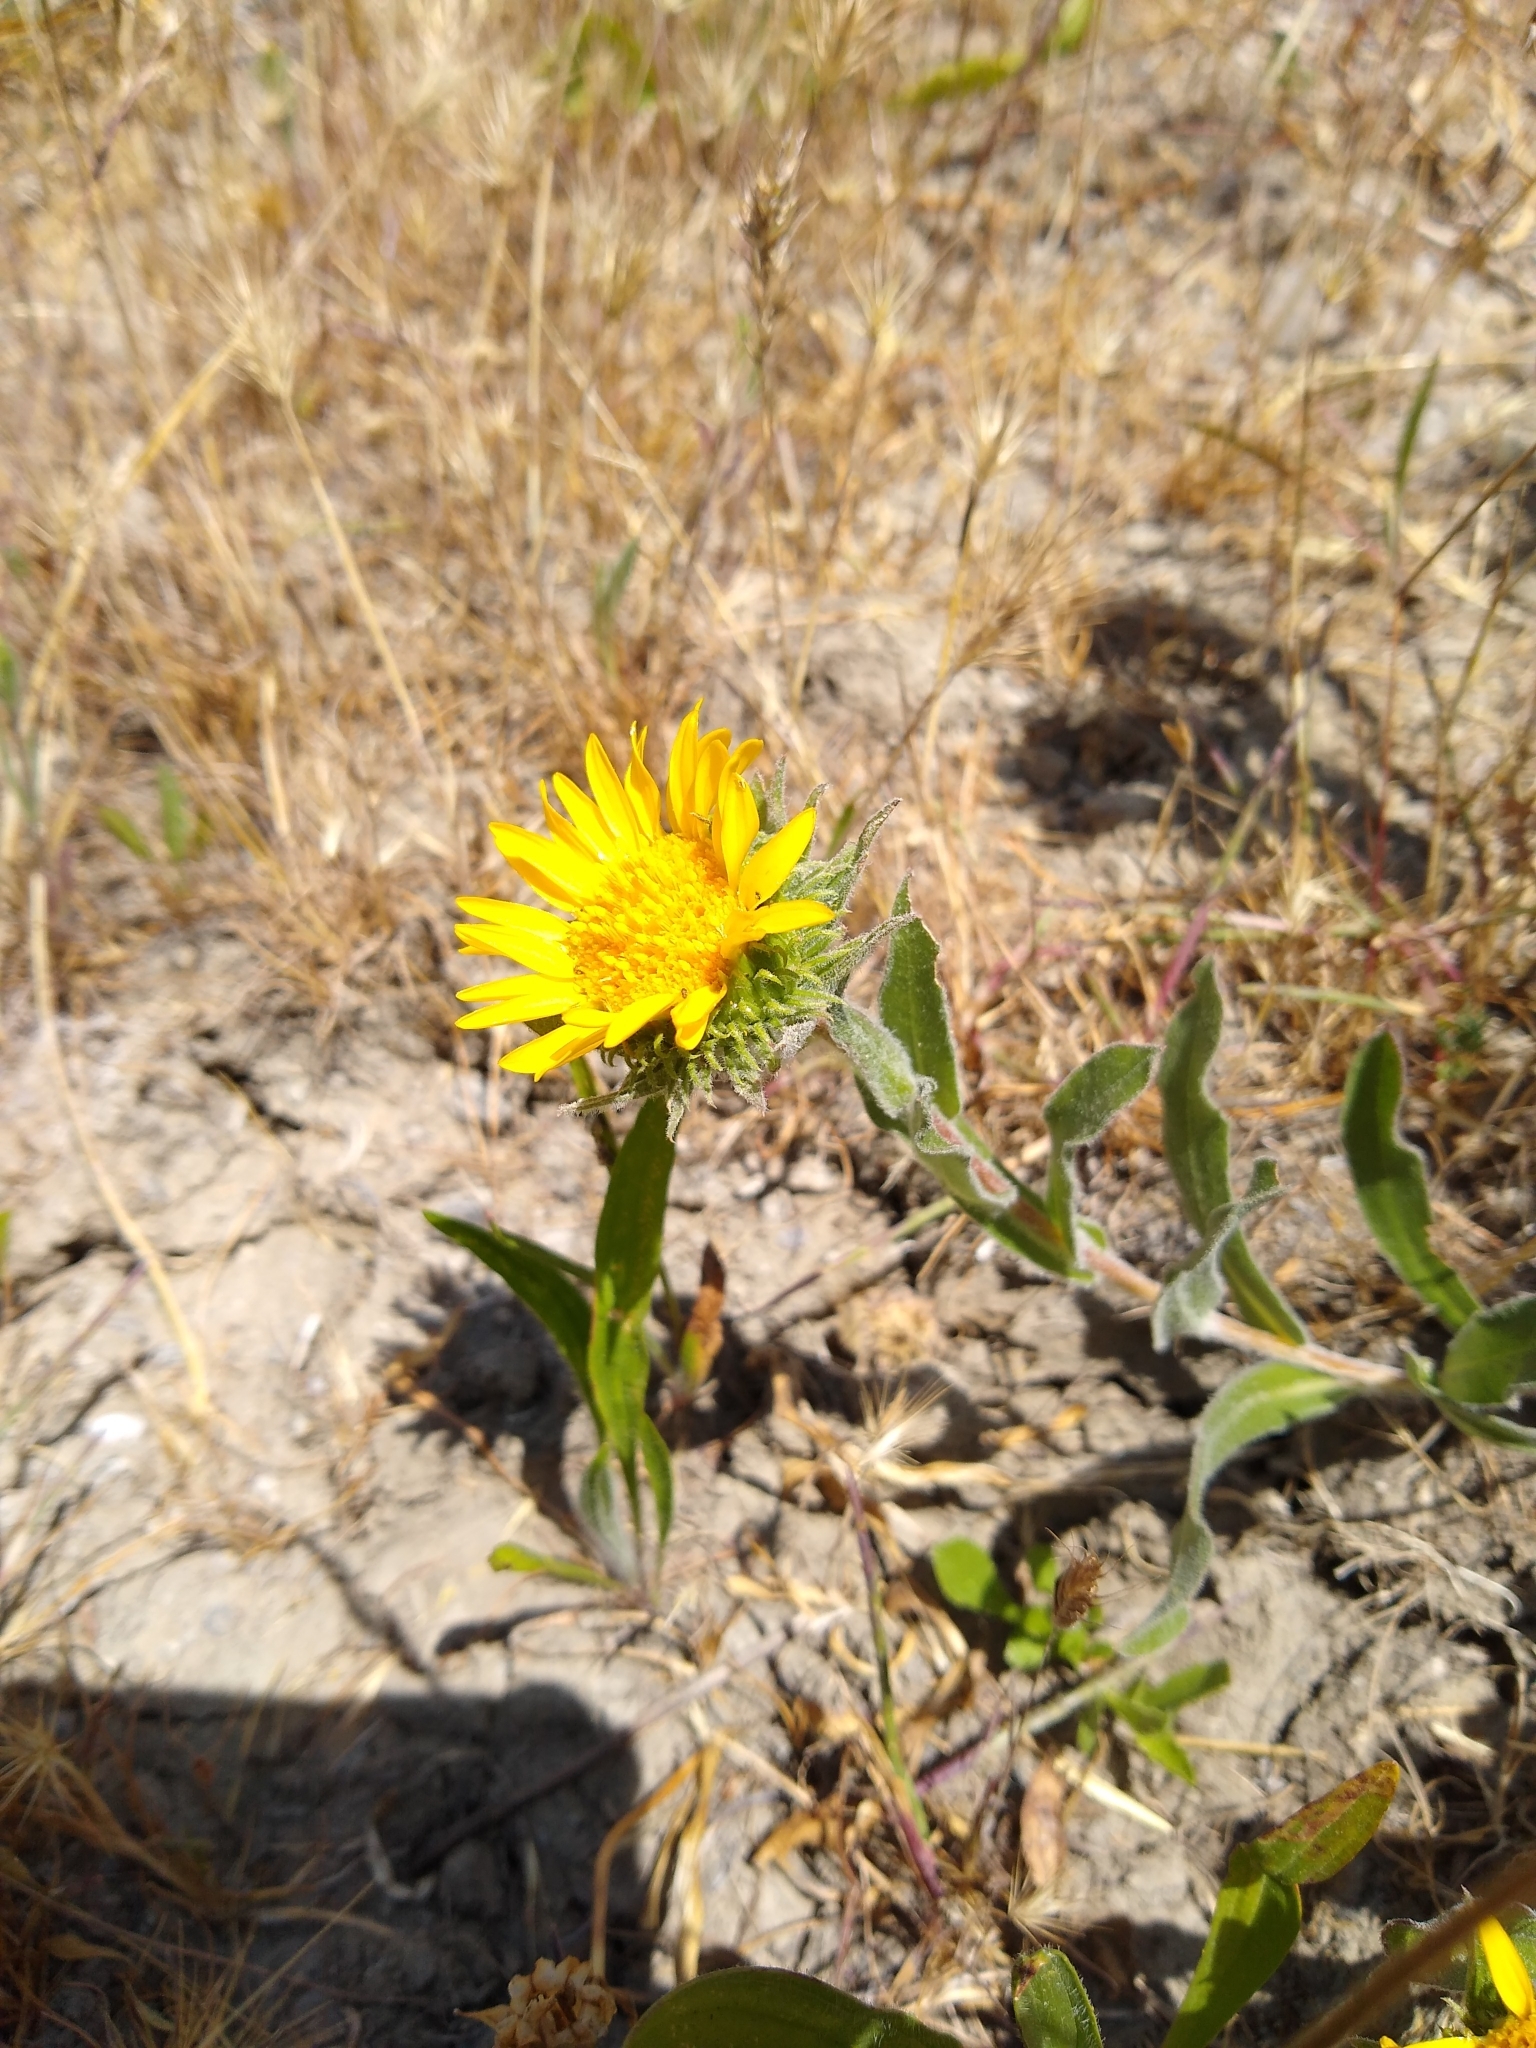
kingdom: Plantae
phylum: Tracheophyta
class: Magnoliopsida
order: Asterales
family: Asteraceae
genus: Grindelia
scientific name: Grindelia hirsutula
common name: Hairy gumweed
